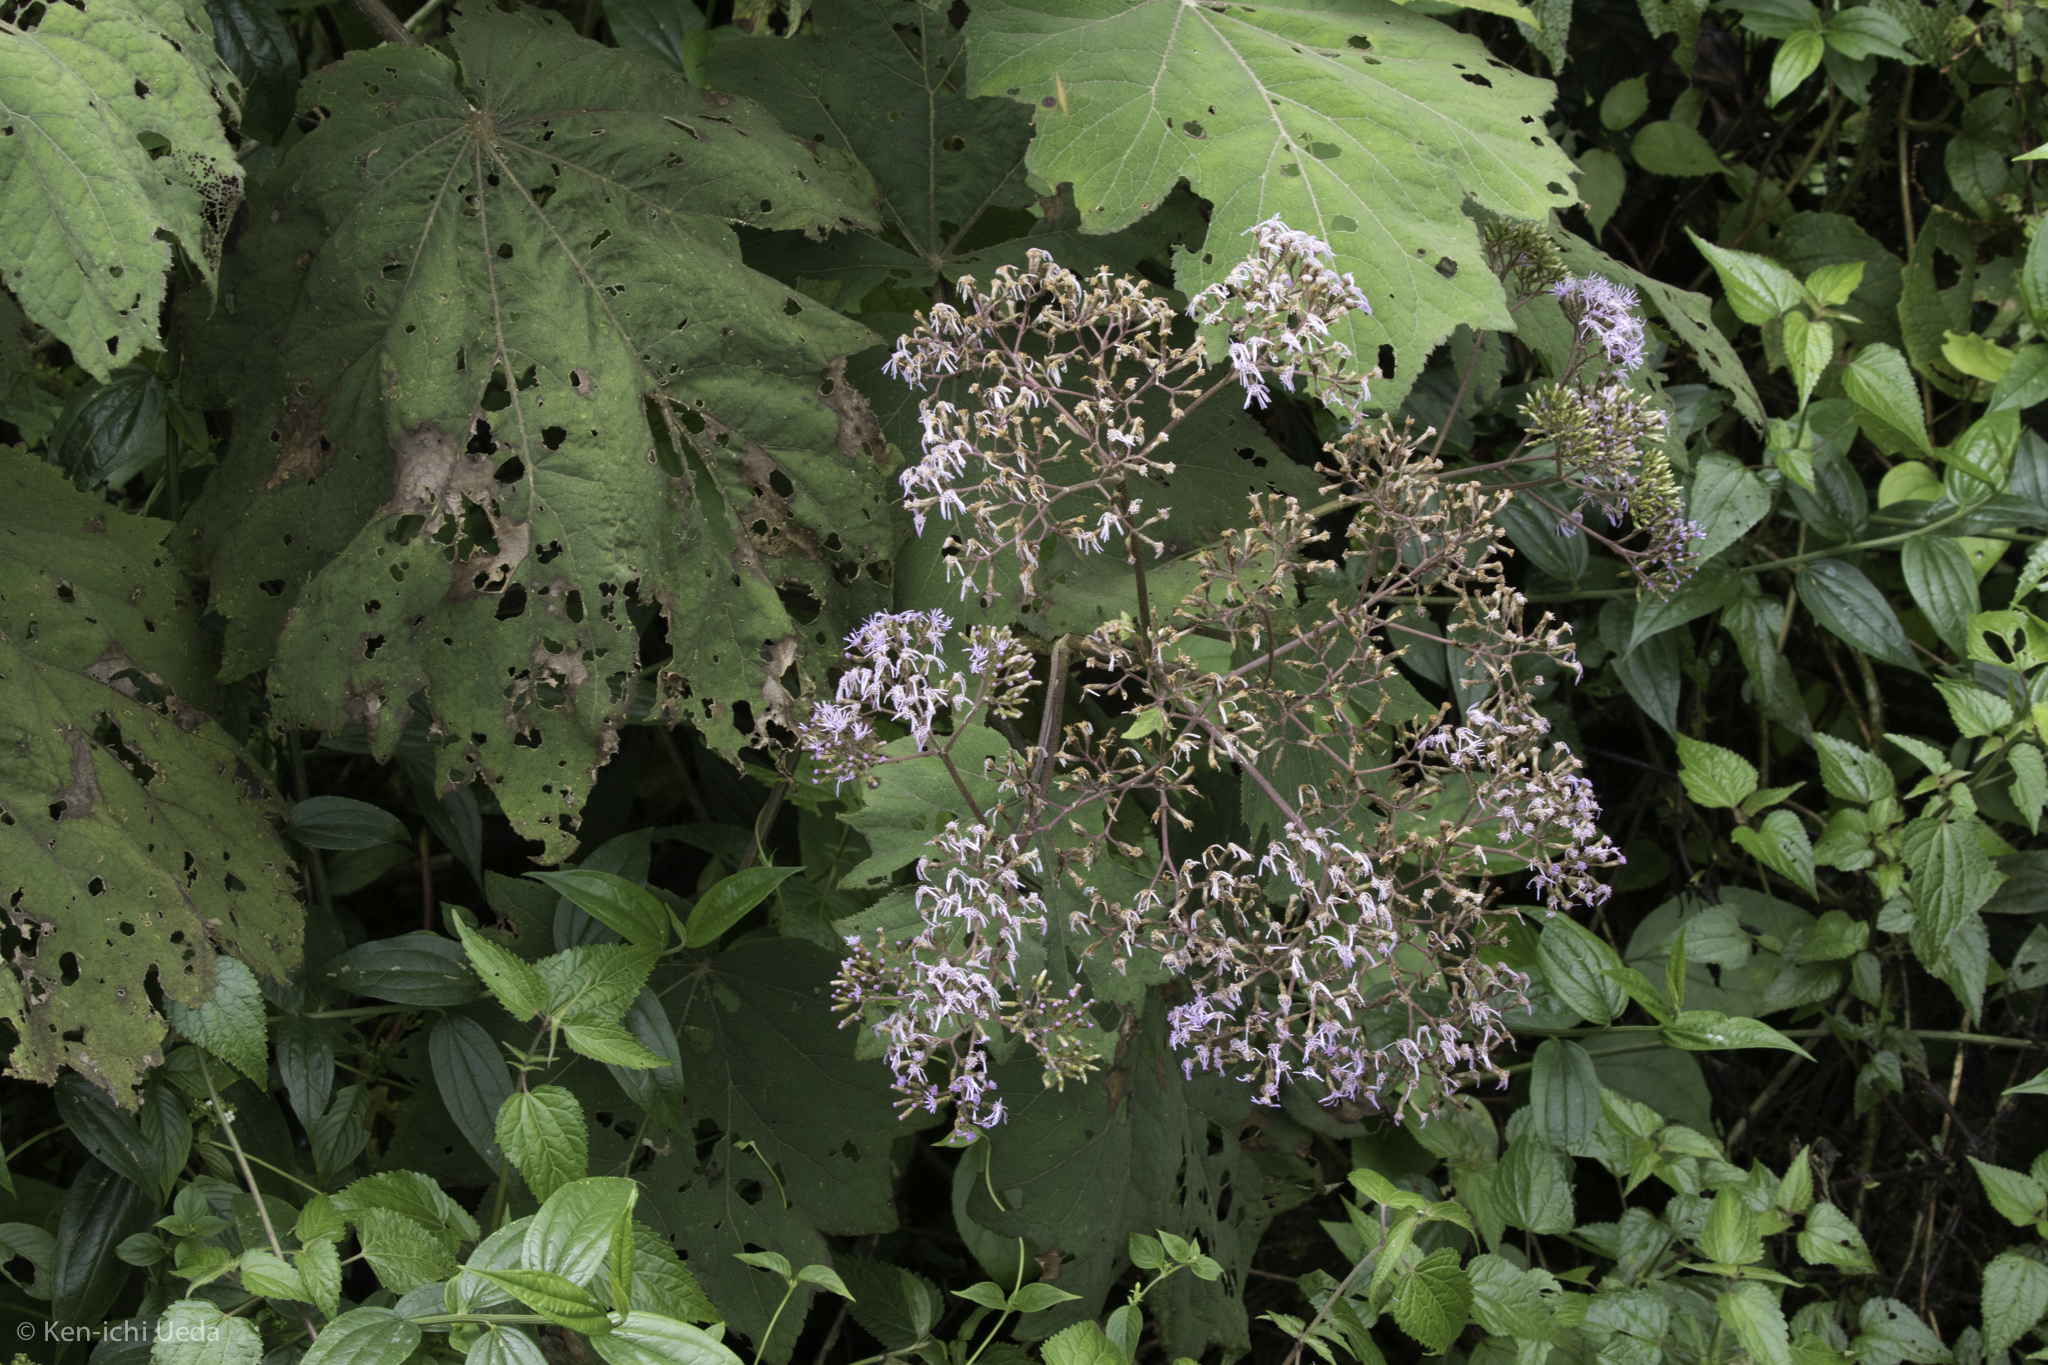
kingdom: Plantae
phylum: Tracheophyta
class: Magnoliopsida
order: Asterales
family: Asteraceae
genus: Neomirandea
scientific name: Neomirandea angularis
